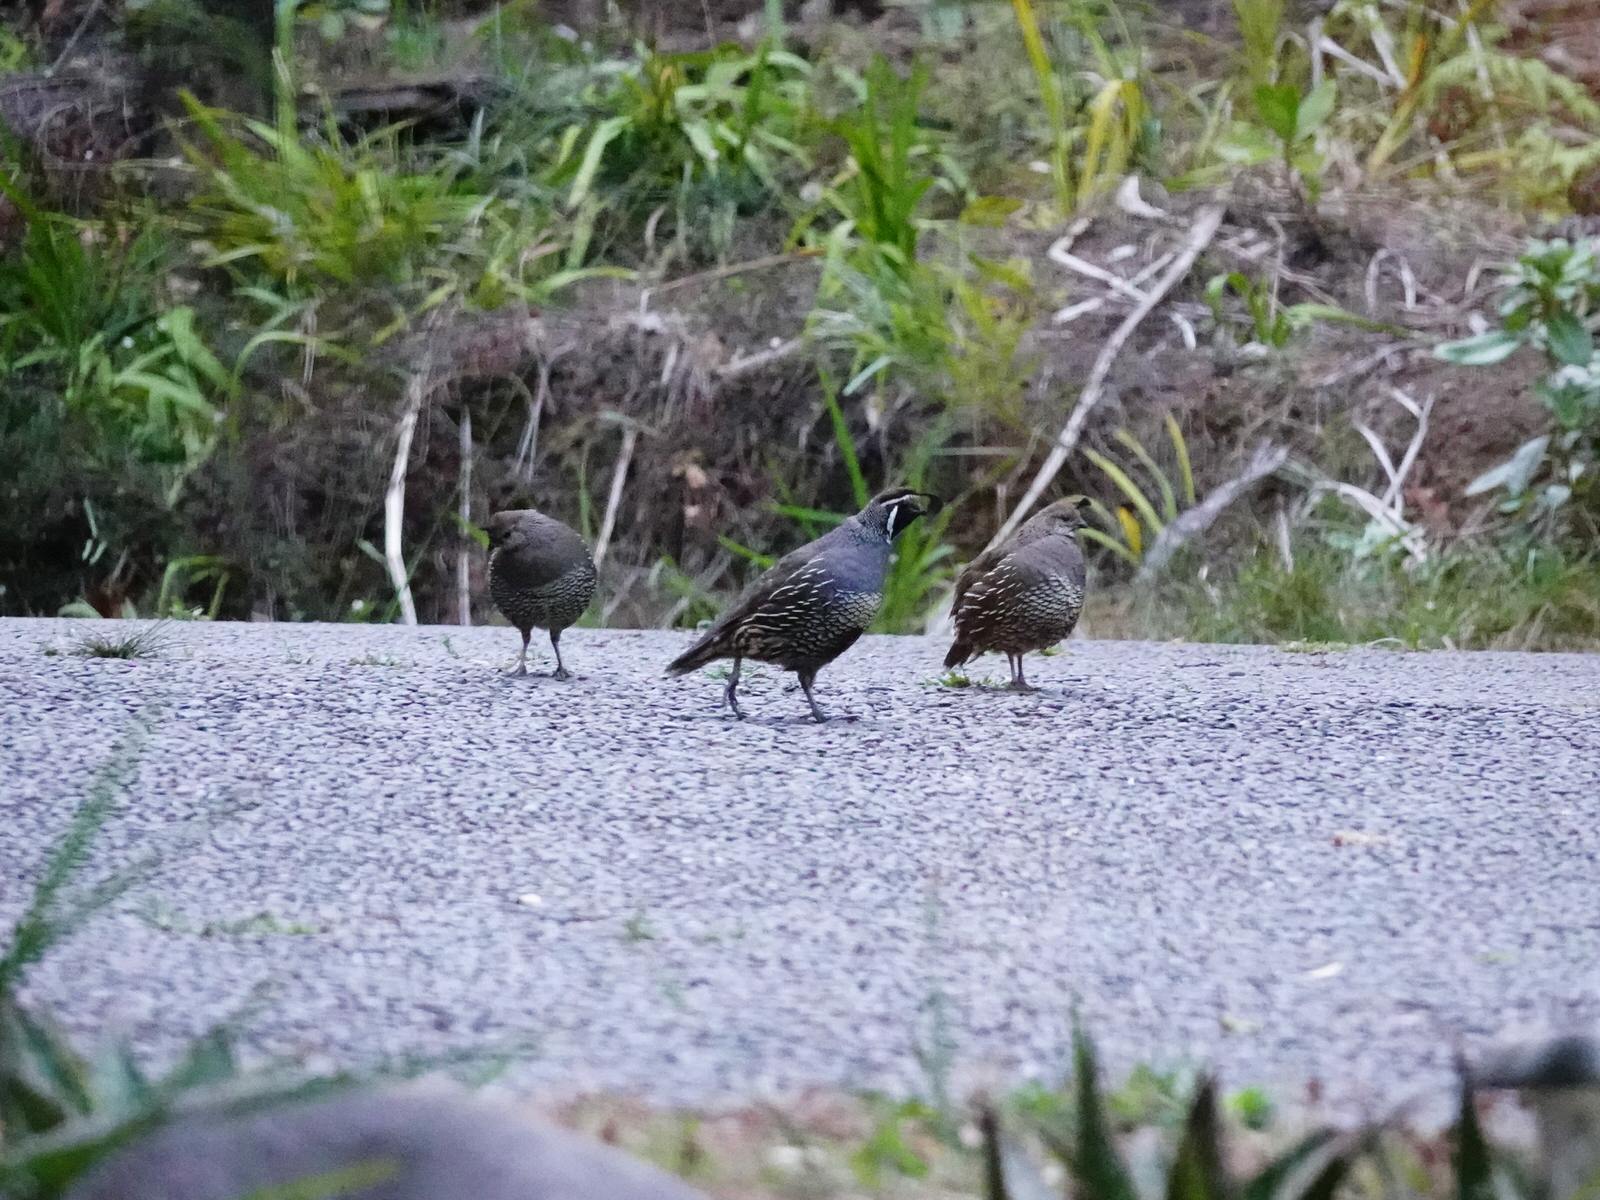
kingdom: Animalia
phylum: Chordata
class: Aves
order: Galliformes
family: Odontophoridae
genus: Callipepla
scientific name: Callipepla californica
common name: California quail
